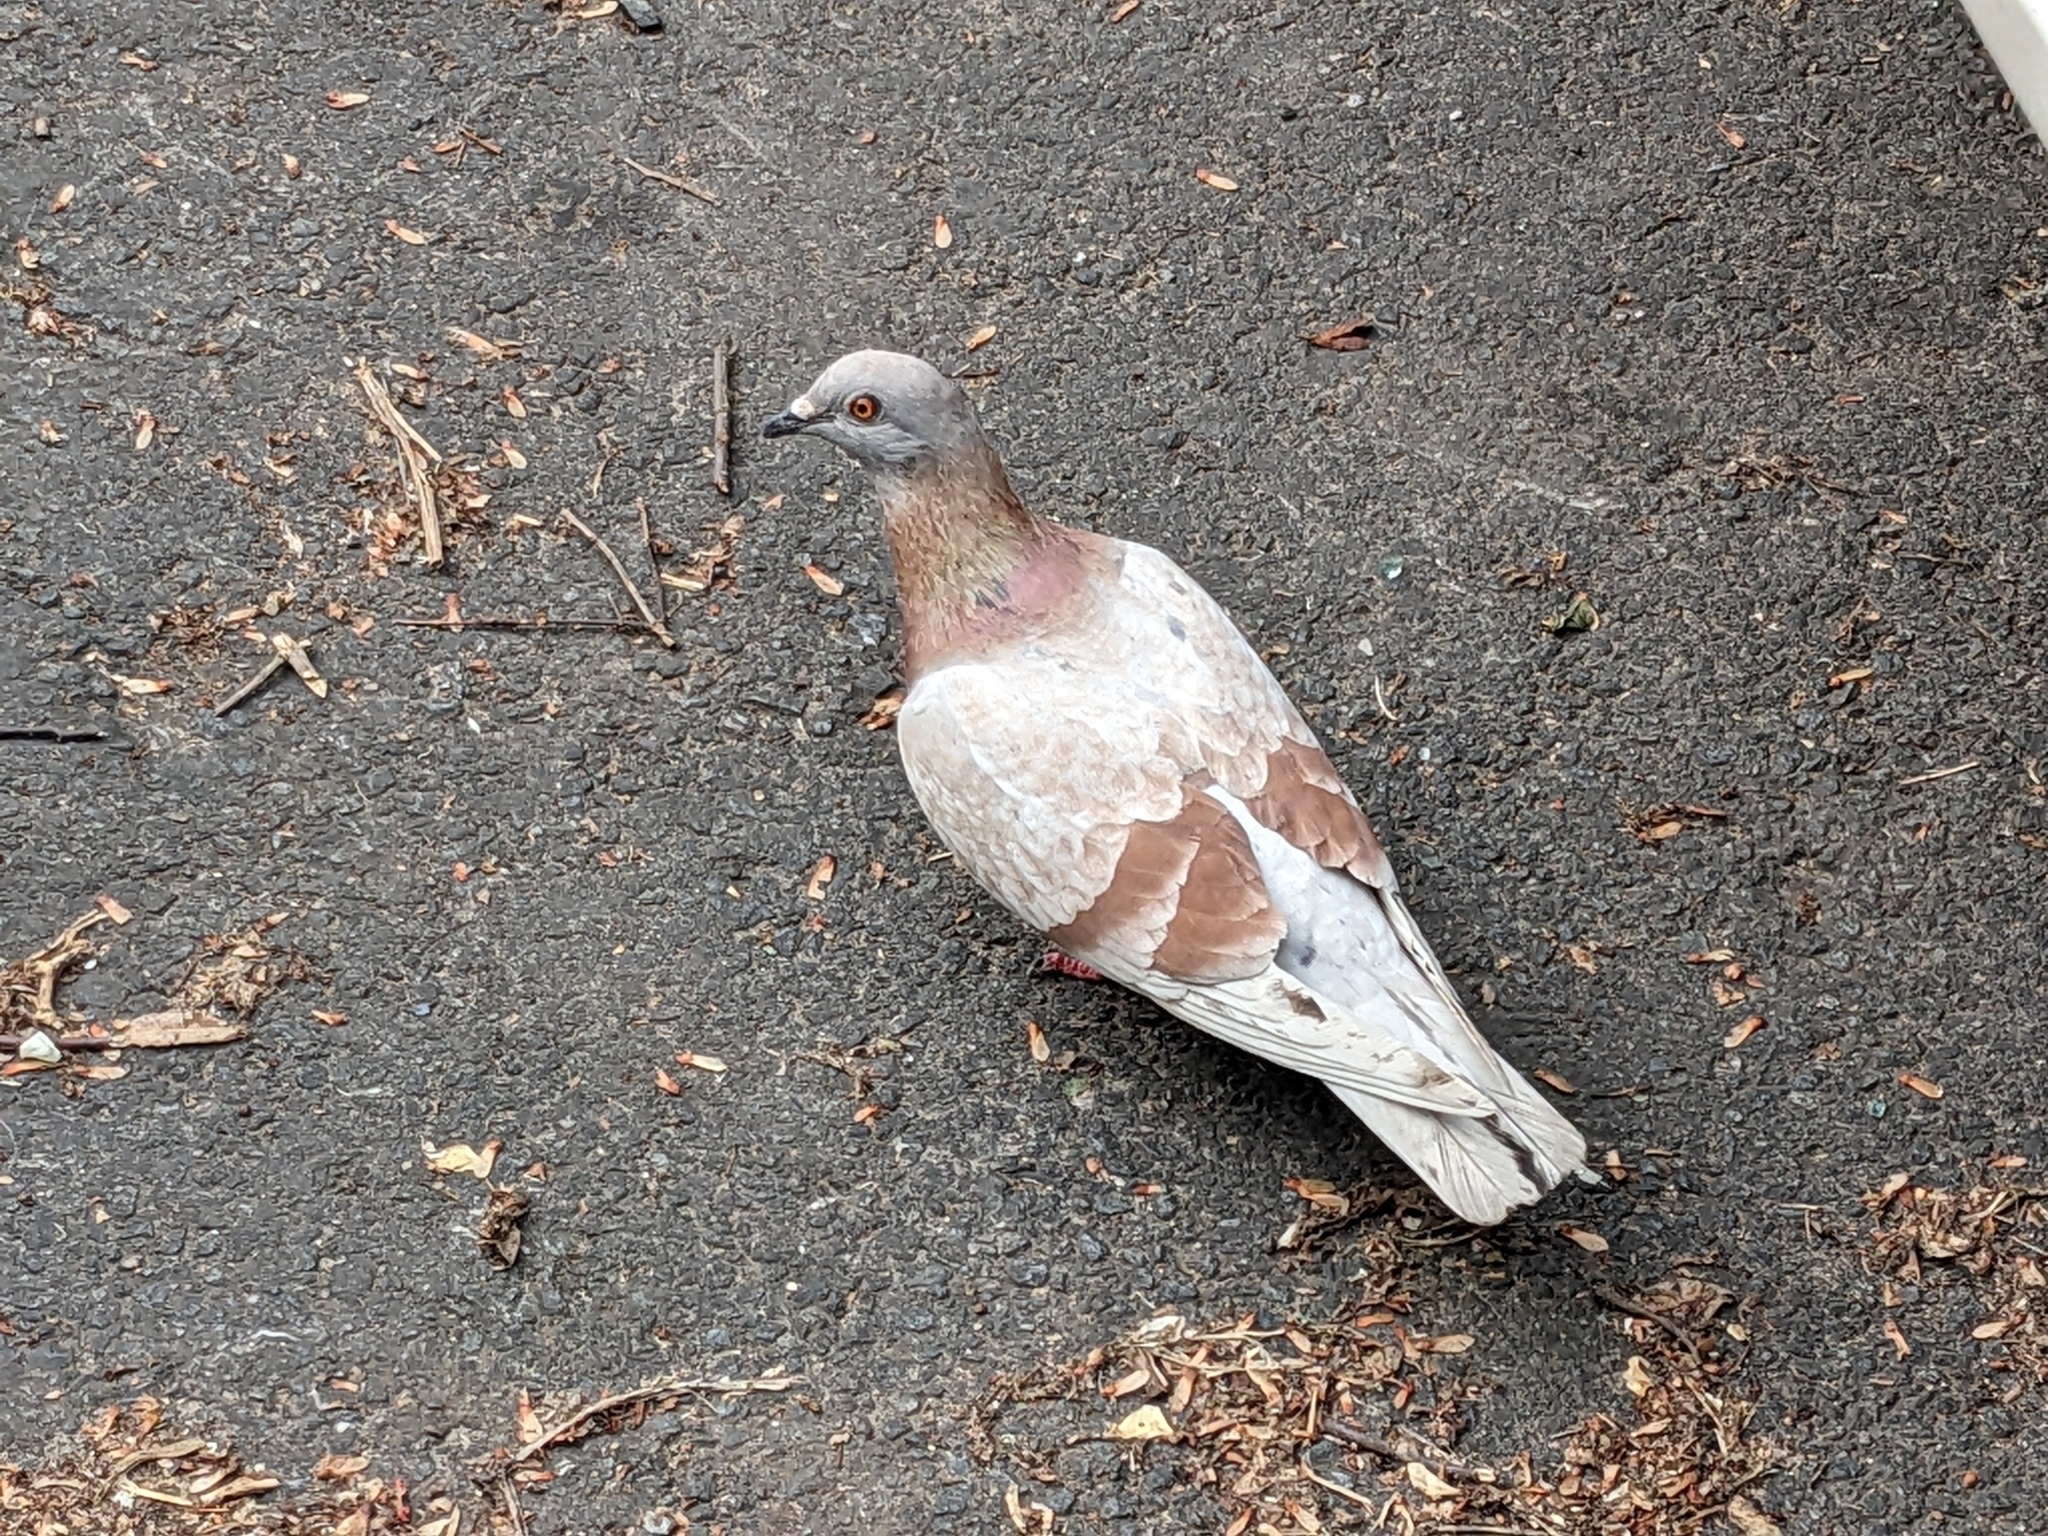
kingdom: Animalia
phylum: Chordata
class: Aves
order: Columbiformes
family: Columbidae
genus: Columba
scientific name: Columba livia
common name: Rock pigeon
